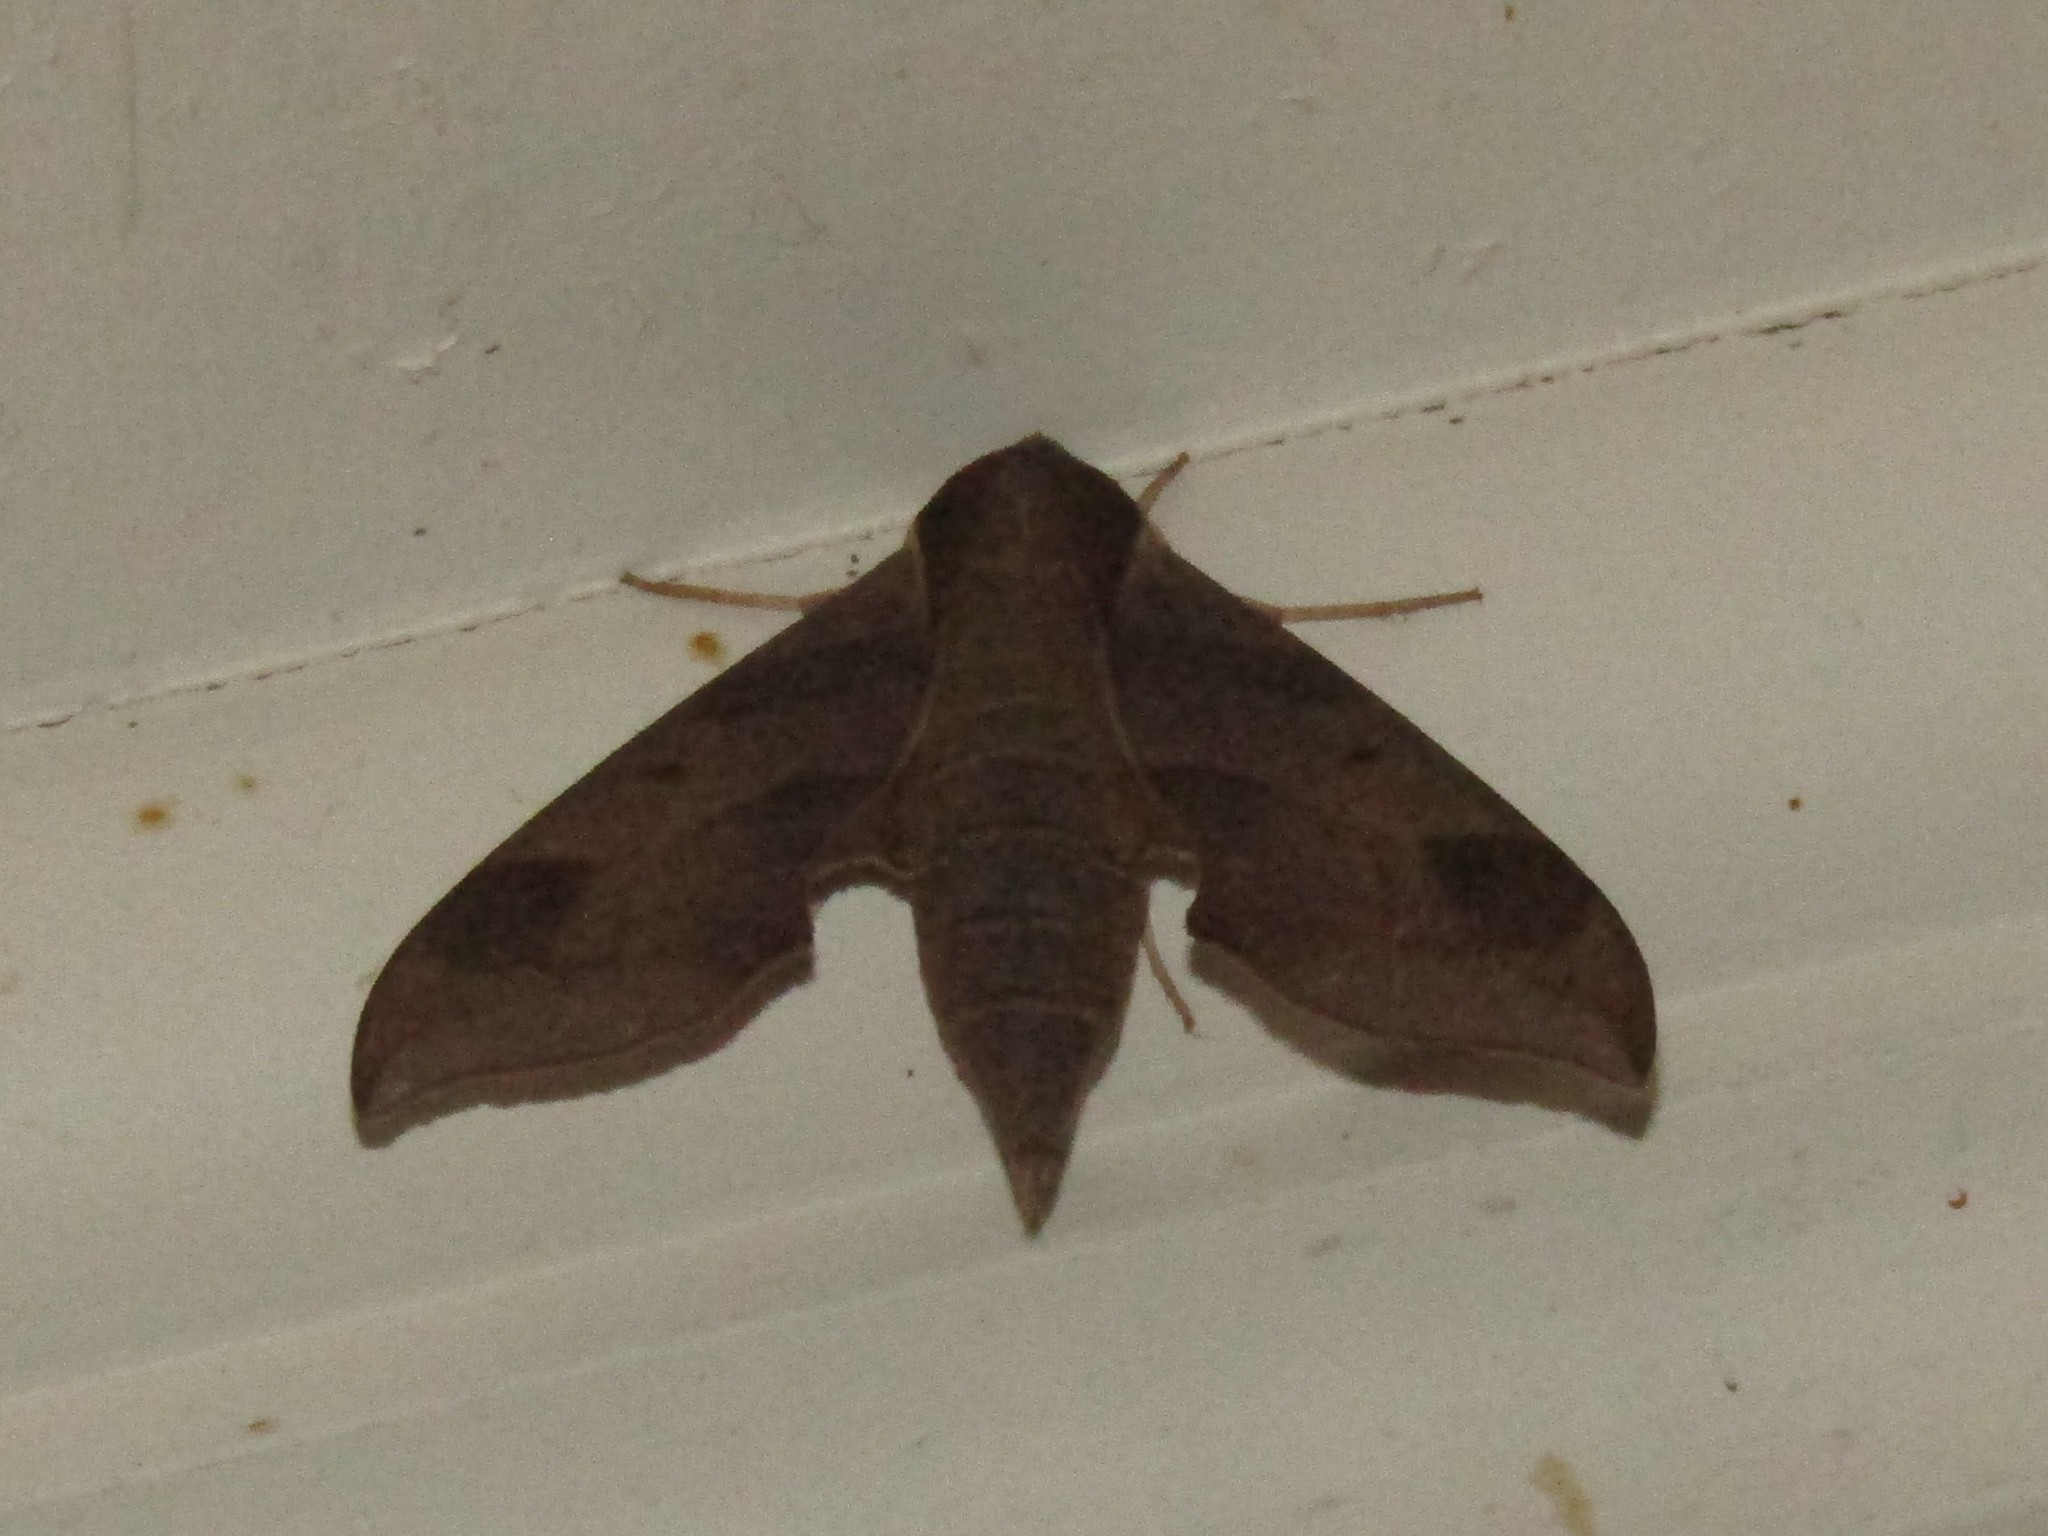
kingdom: Animalia
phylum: Arthropoda
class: Insecta
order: Lepidoptera
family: Sphingidae
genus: Darapsa
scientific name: Darapsa myron
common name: Hog sphinx
